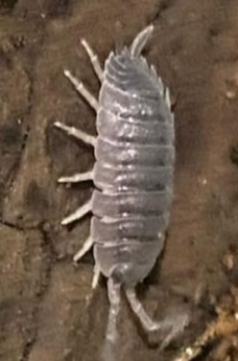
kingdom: Animalia
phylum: Arthropoda
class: Malacostraca
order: Isopoda
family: Porcellionidae
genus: Porcellio
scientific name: Porcellio scaber
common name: Common rough woodlouse
